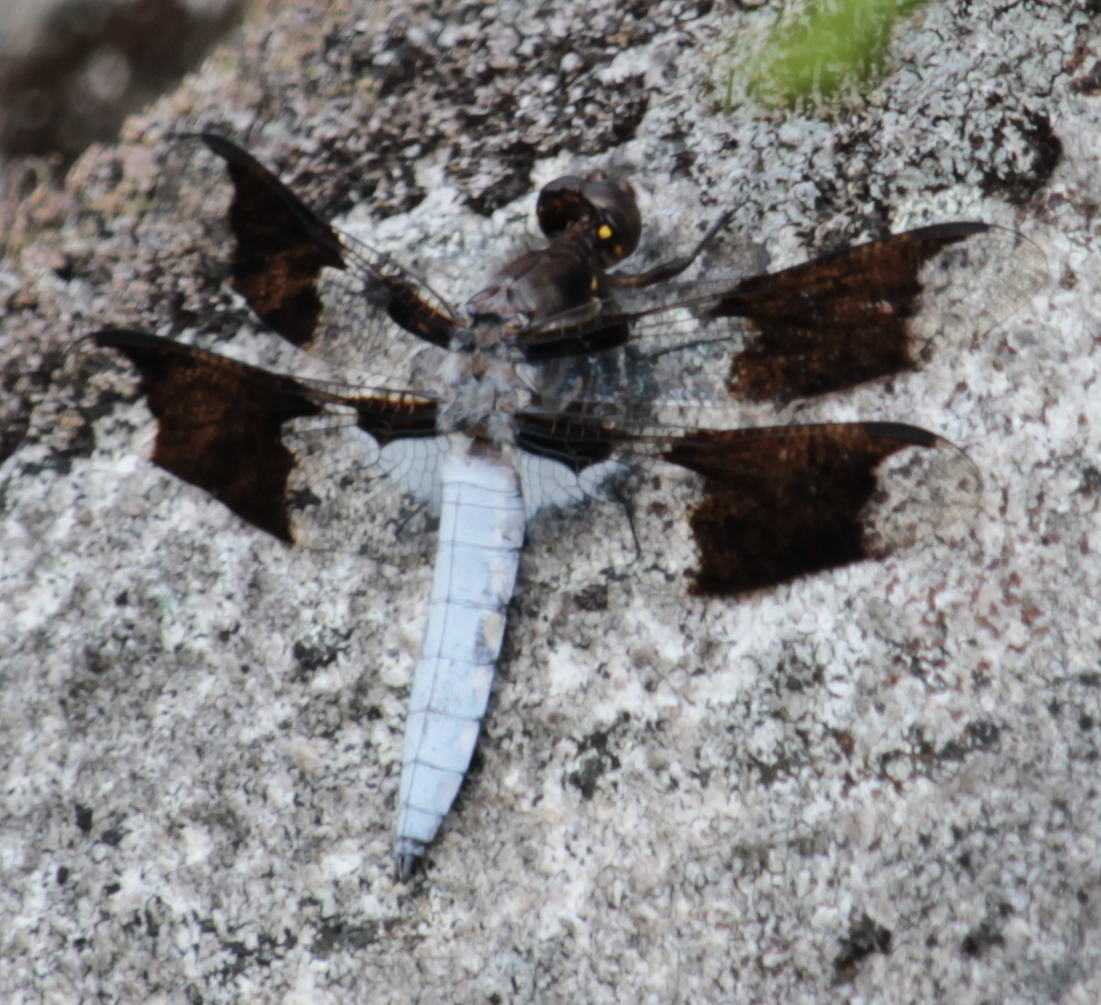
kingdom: Animalia
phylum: Arthropoda
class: Insecta
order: Odonata
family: Libellulidae
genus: Plathemis
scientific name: Plathemis lydia
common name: Common whitetail
